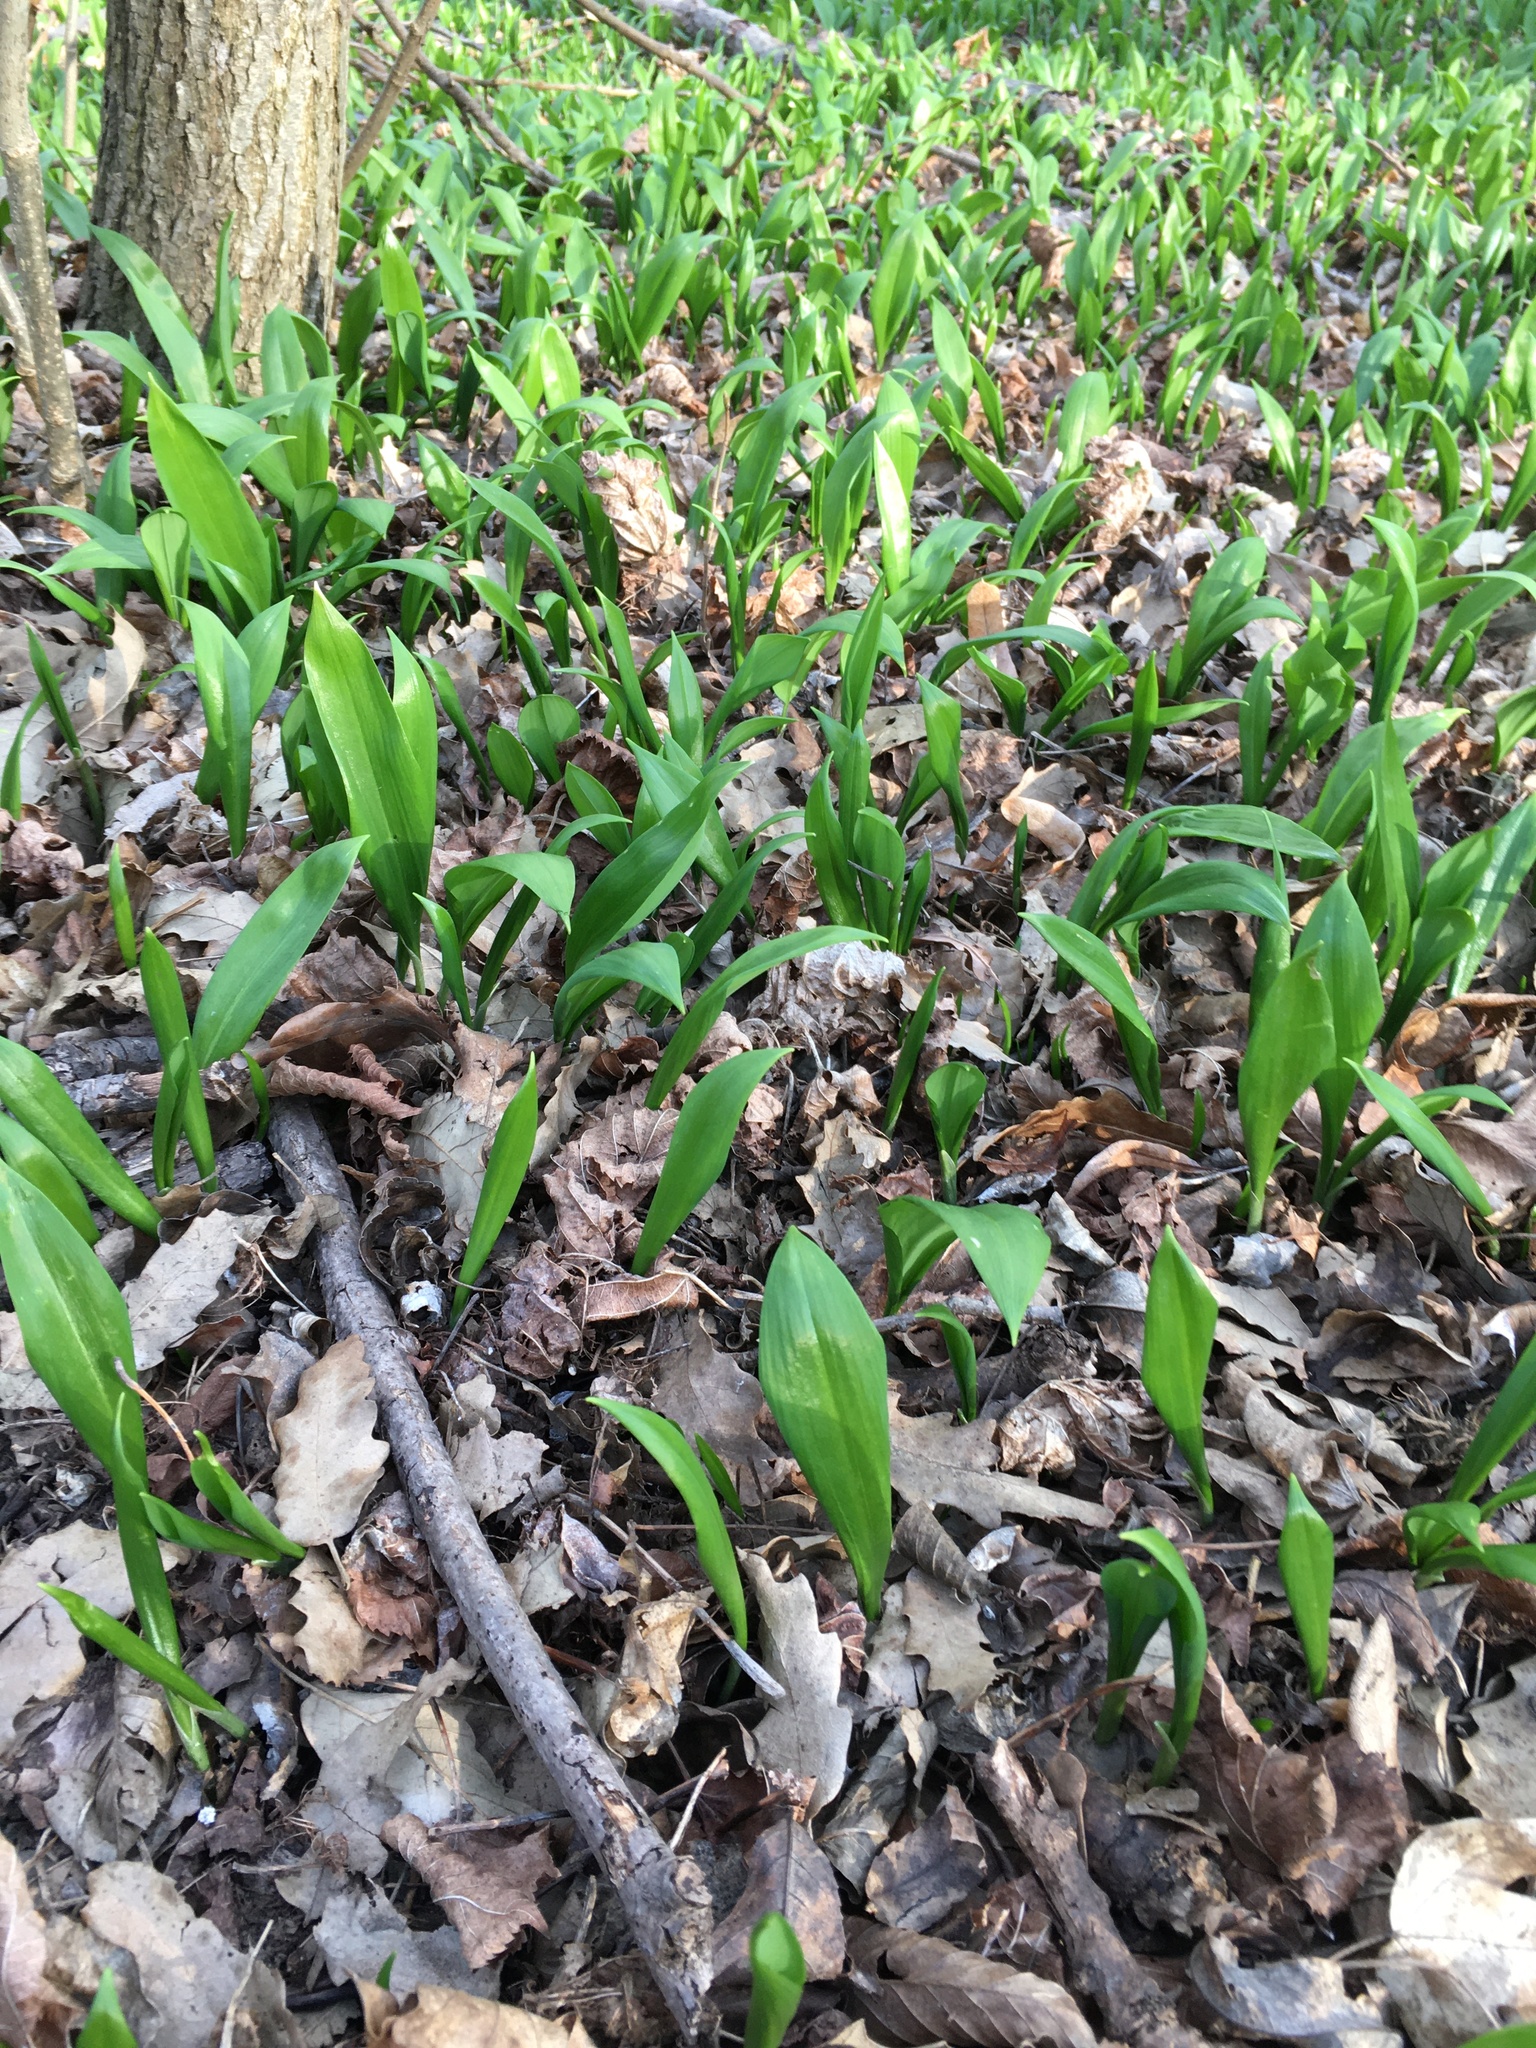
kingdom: Plantae
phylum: Tracheophyta
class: Liliopsida
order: Asparagales
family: Amaryllidaceae
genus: Allium
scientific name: Allium ursinum
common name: Ramsons
